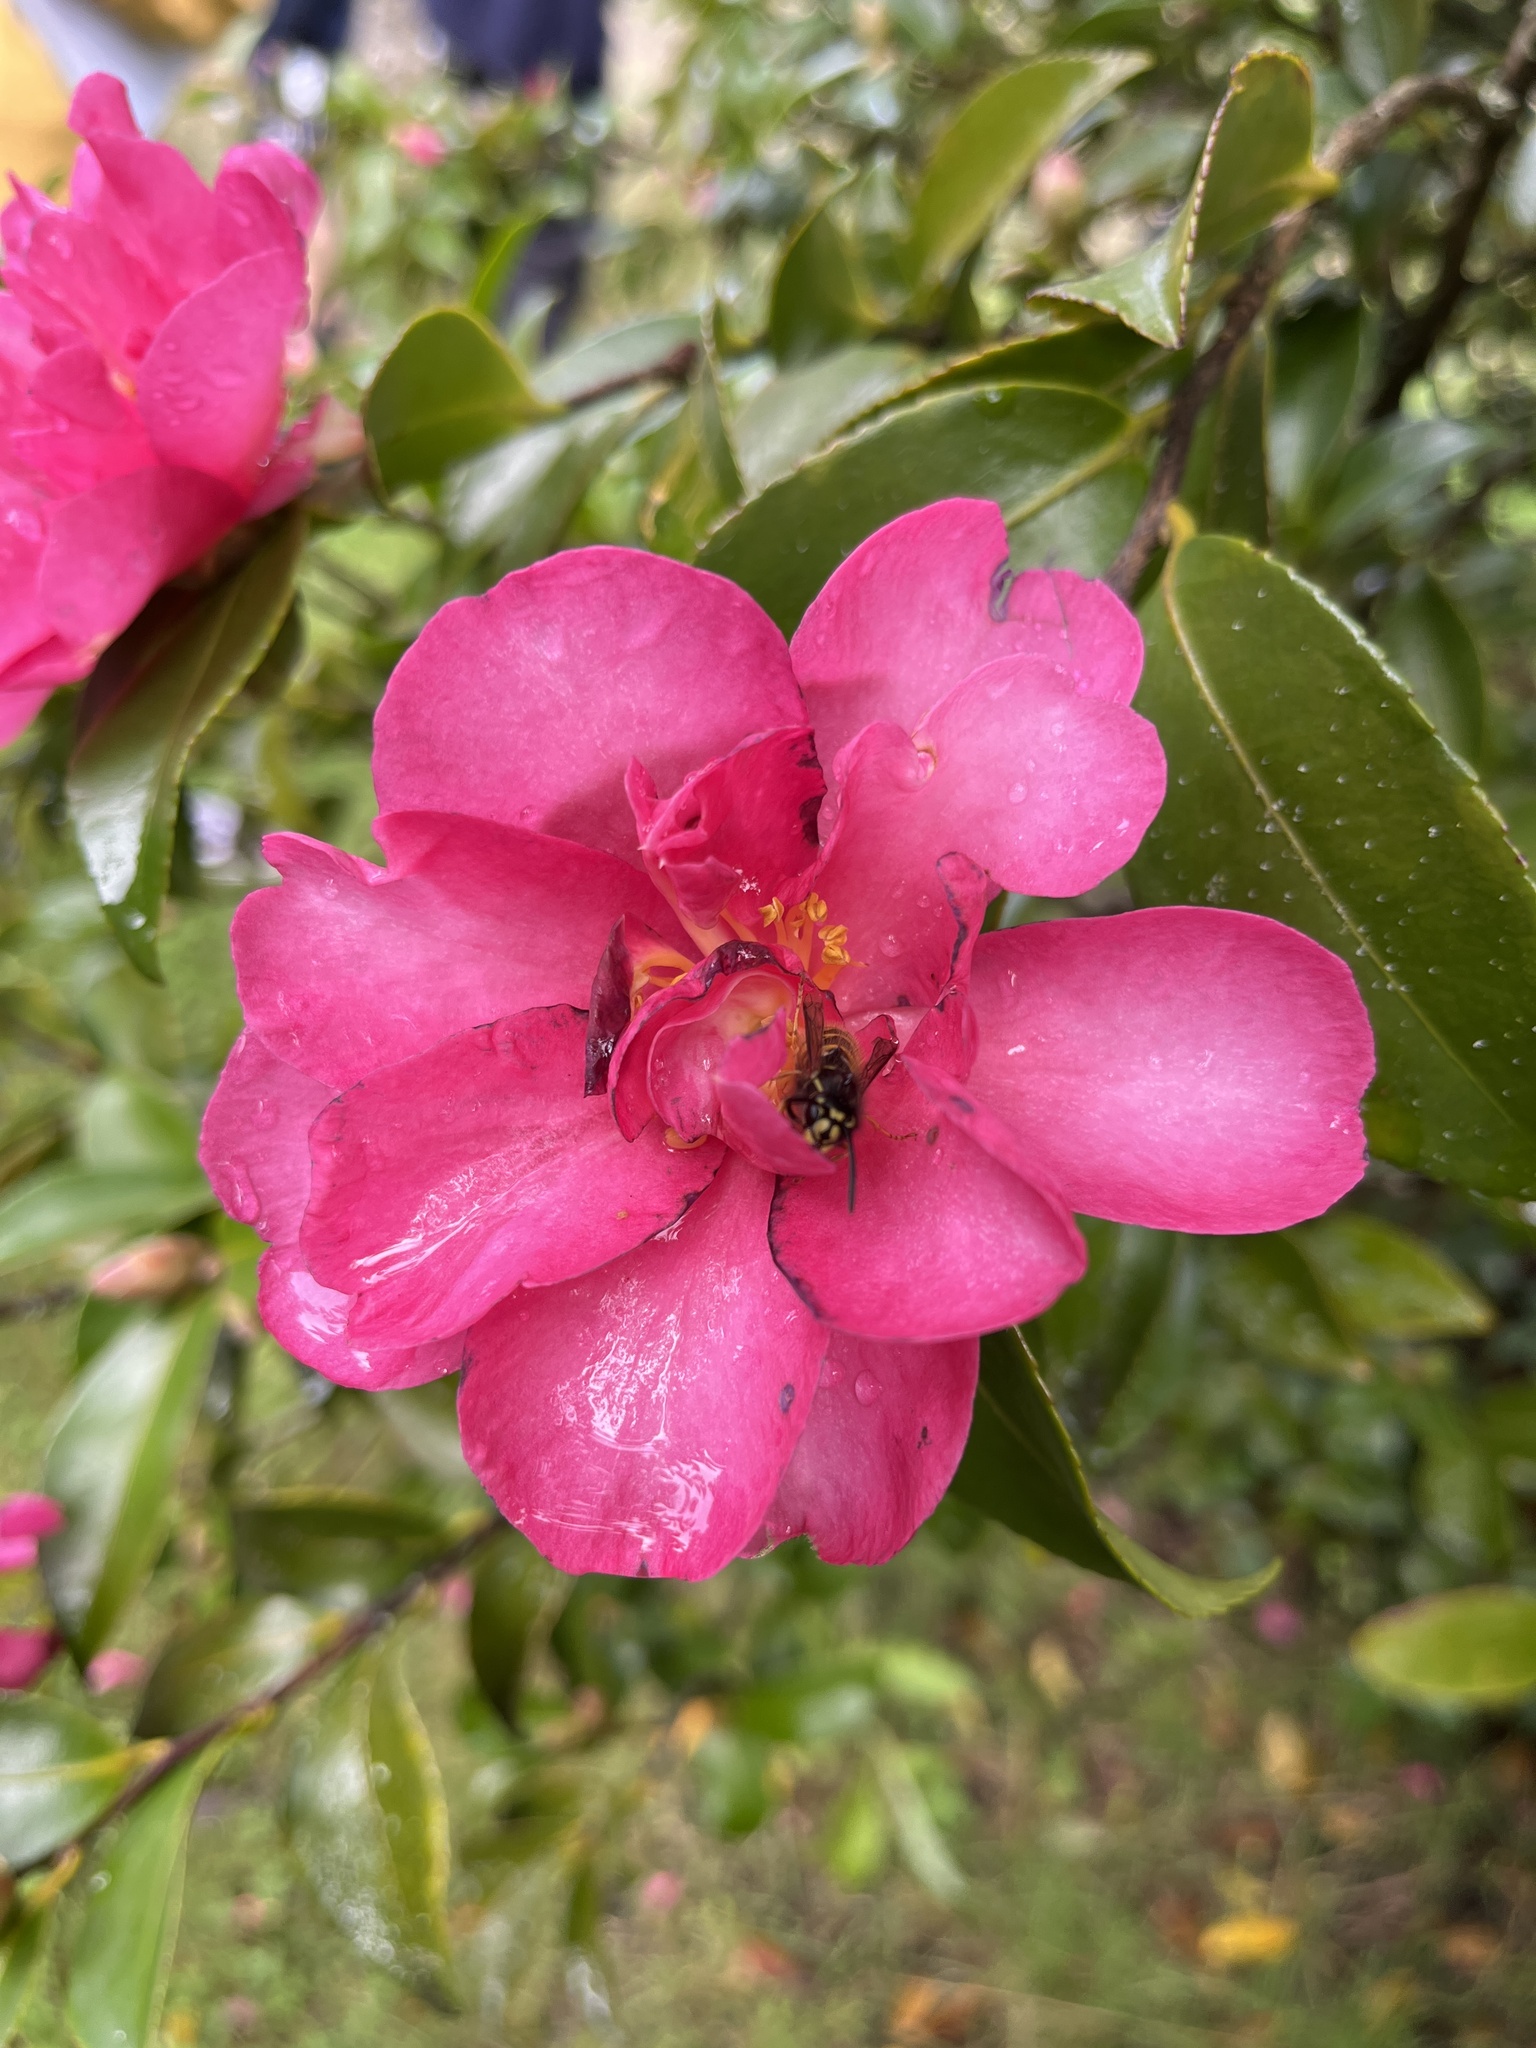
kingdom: Animalia
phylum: Arthropoda
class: Insecta
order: Hymenoptera
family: Vespidae
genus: Vespula
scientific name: Vespula vulgaris
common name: Common wasp
